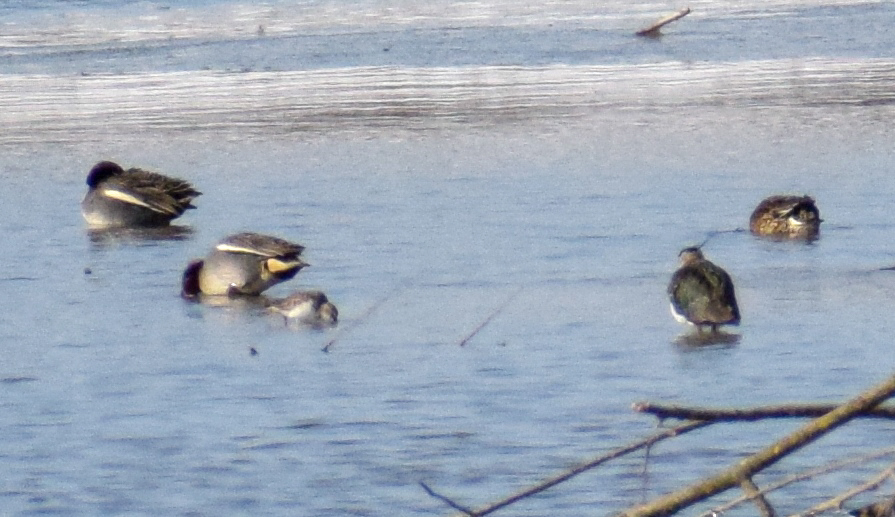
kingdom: Animalia
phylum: Chordata
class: Aves
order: Charadriiformes
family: Scolopacidae
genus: Calidris
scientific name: Calidris minuta
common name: Little stint
